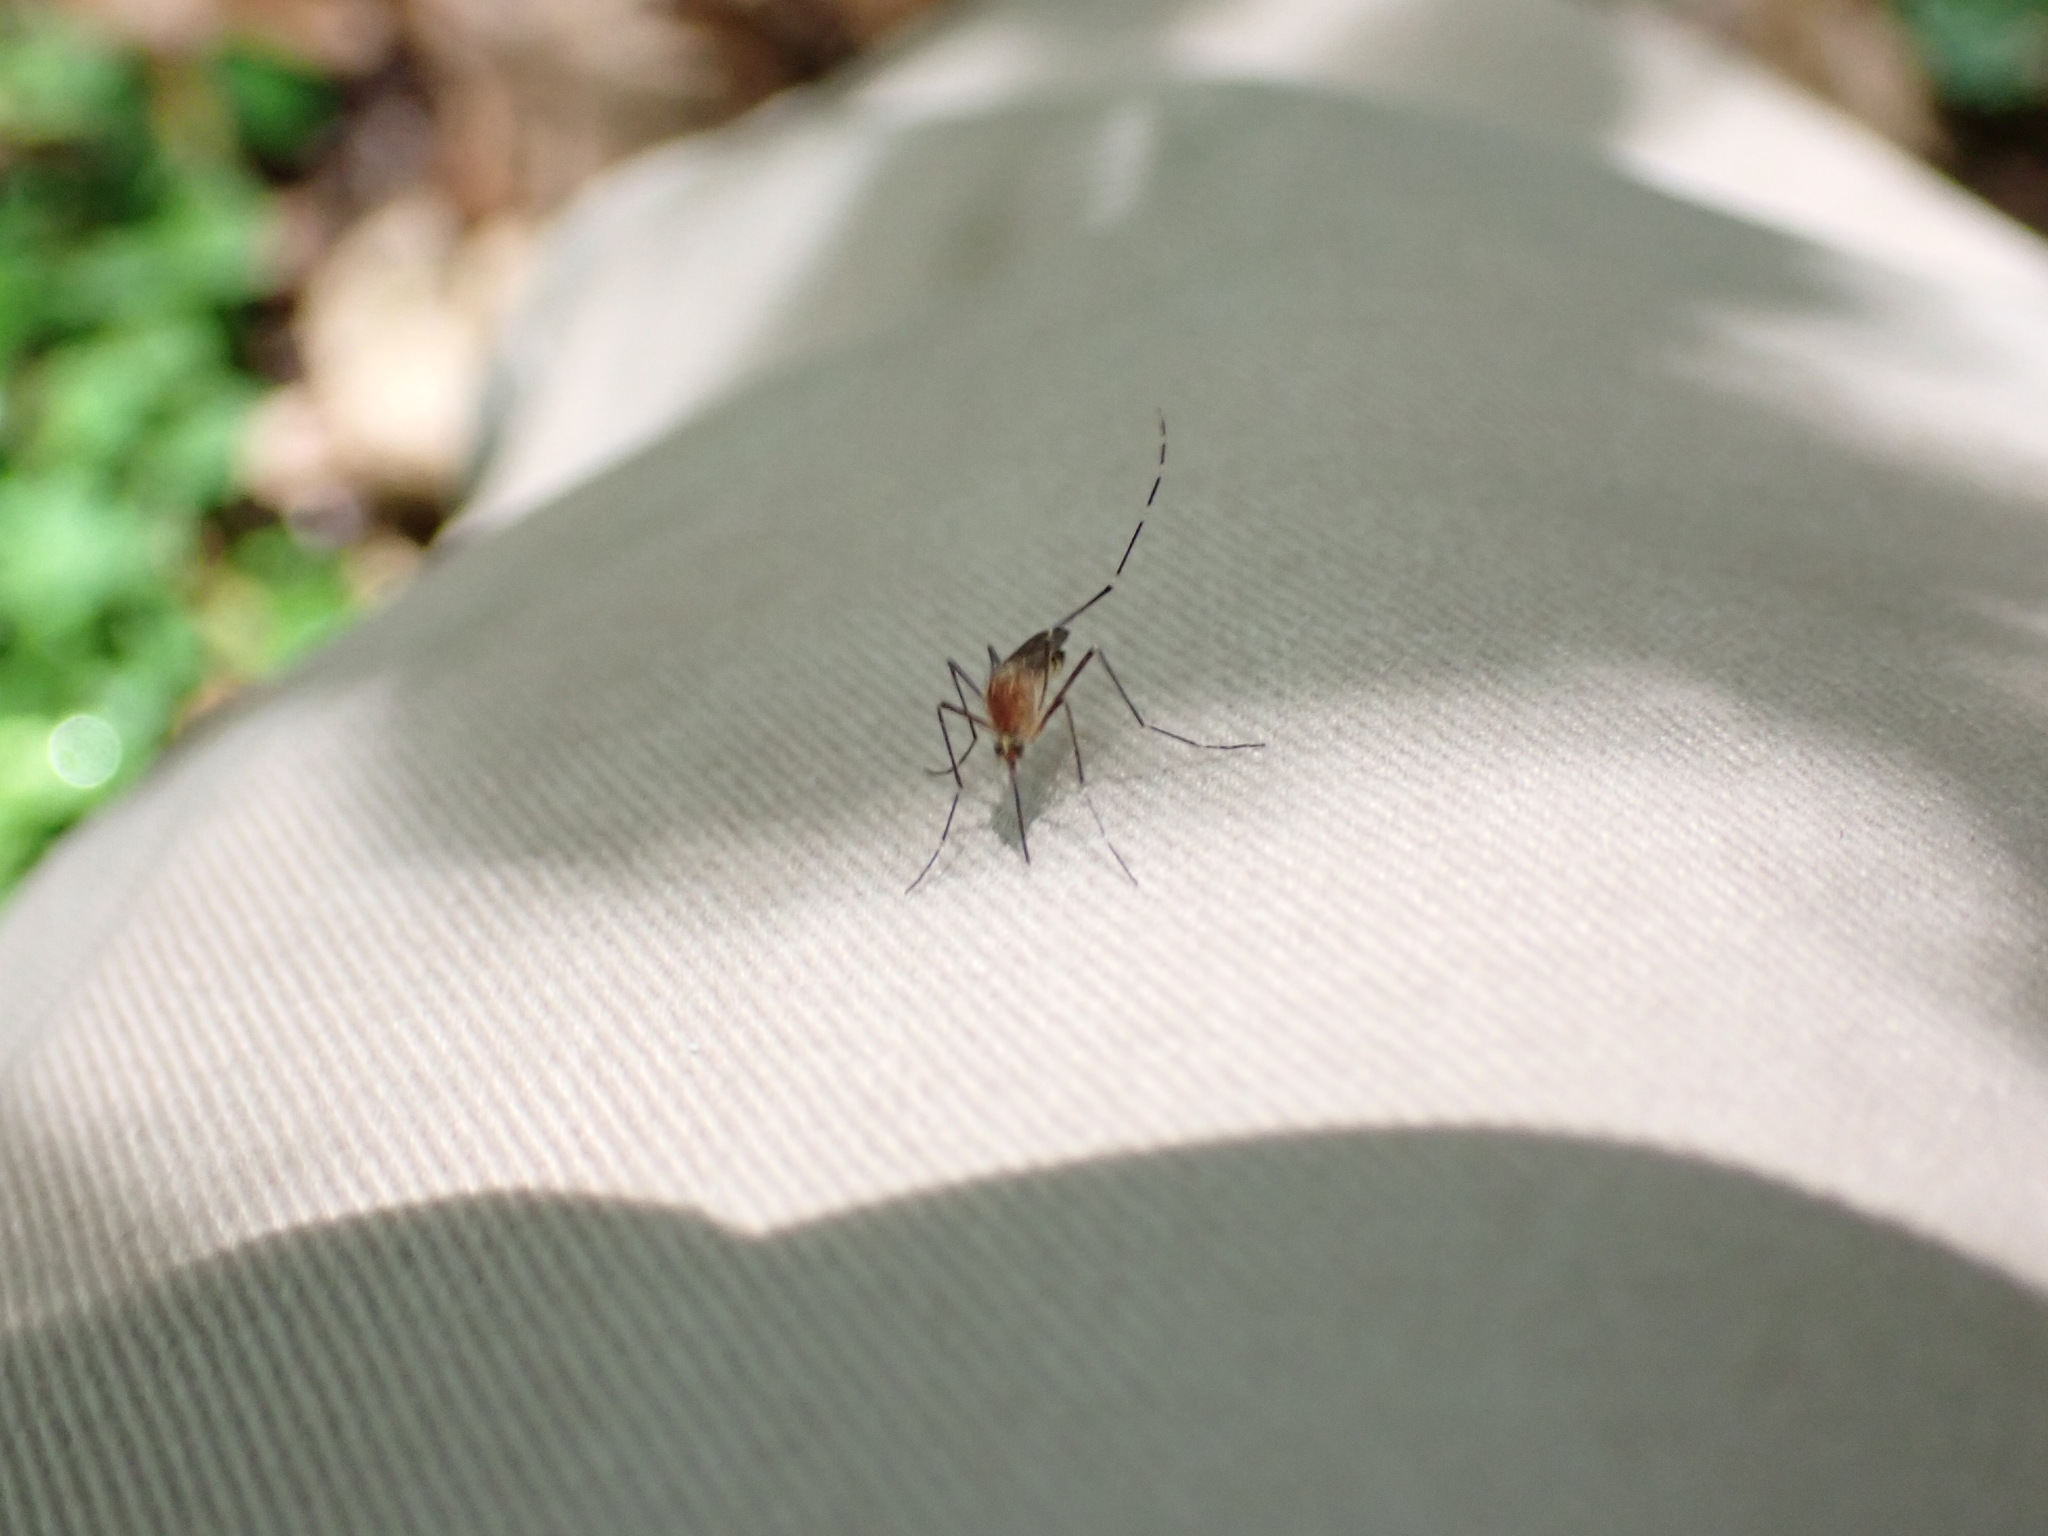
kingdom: Animalia
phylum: Arthropoda
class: Insecta
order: Diptera
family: Culicidae
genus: Aedes
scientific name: Aedes canadensis
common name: Woodland pool mosquito
